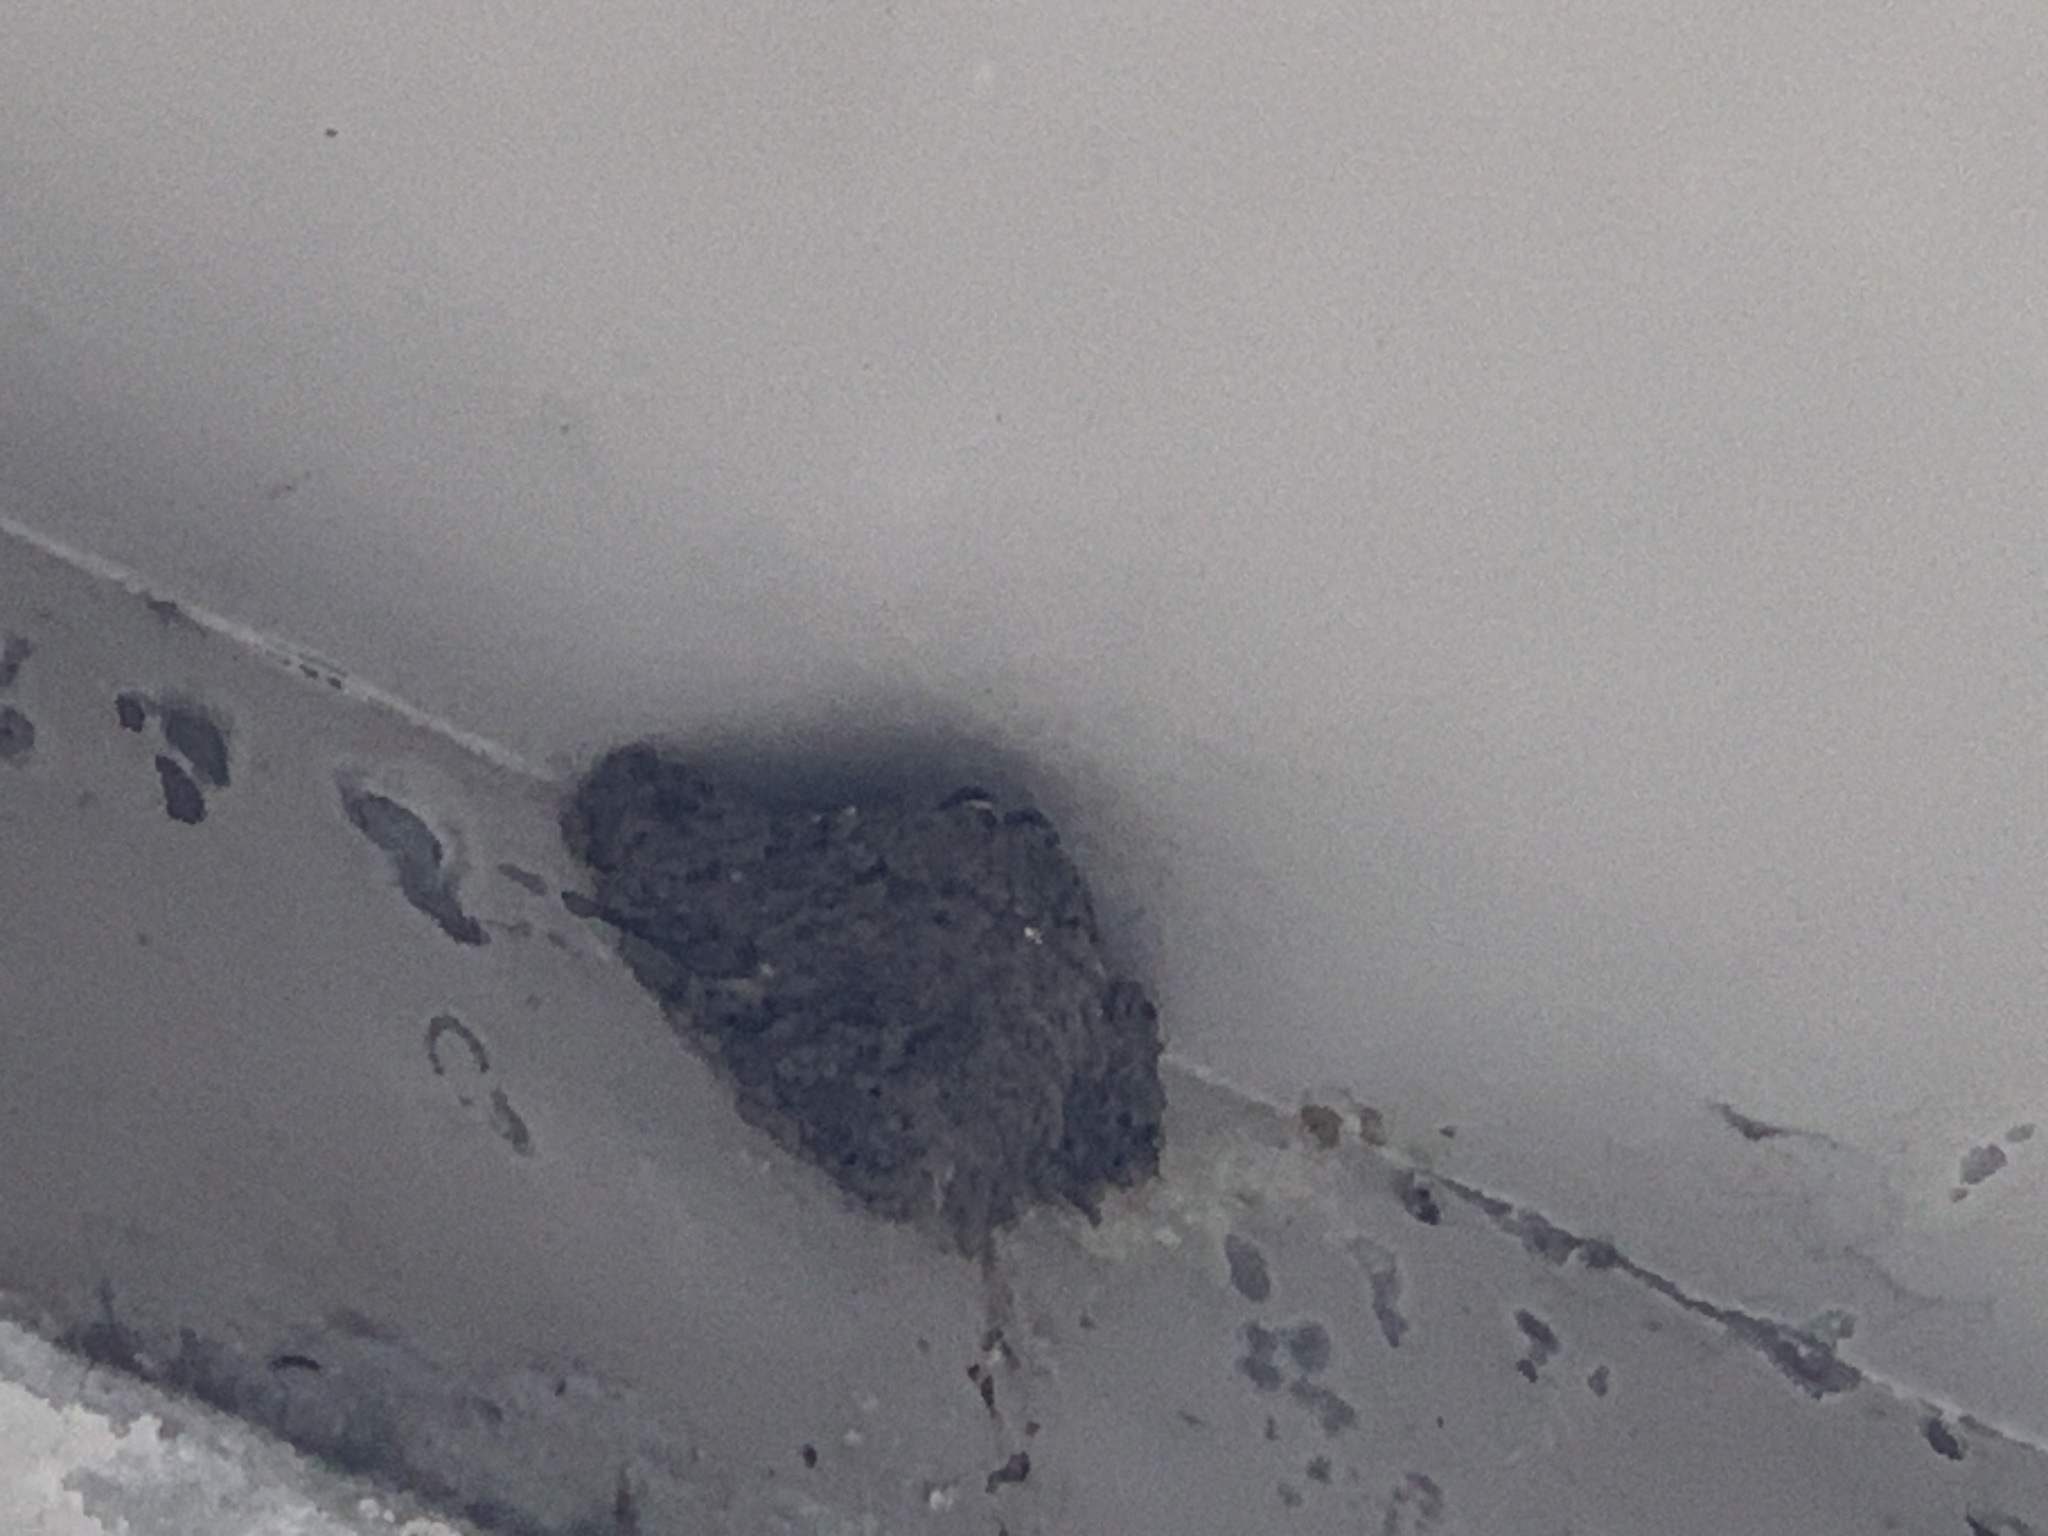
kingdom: Animalia
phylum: Chordata
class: Aves
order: Passeriformes
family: Hirundinidae
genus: Hirundo
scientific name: Hirundo tahitica
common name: Pacific swallow
